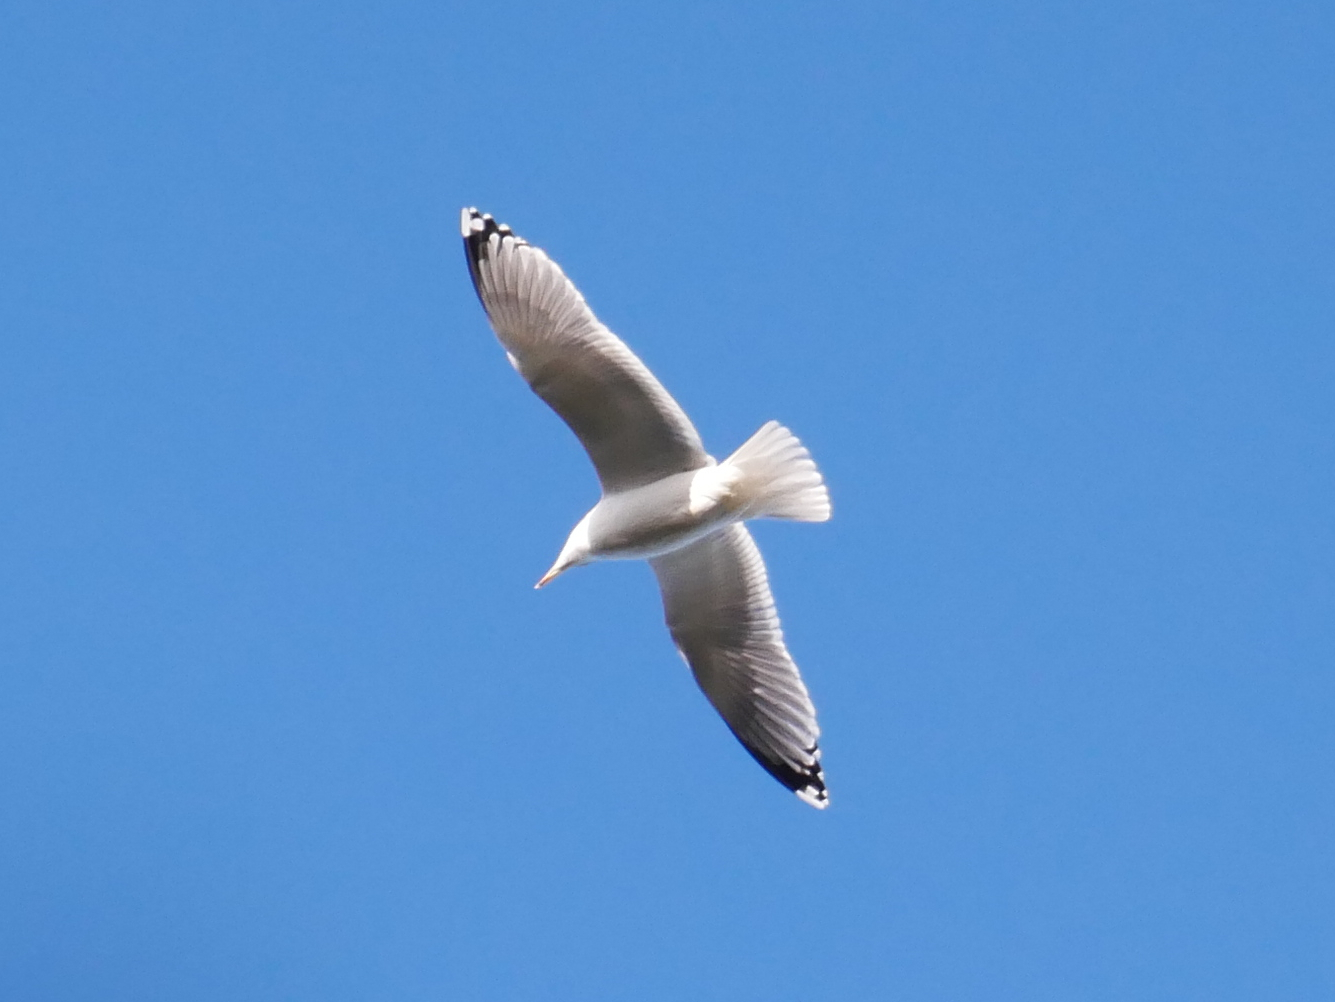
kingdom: Animalia
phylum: Chordata
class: Aves
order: Charadriiformes
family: Laridae
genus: Larus
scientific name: Larus argentatus
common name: Herring gull
